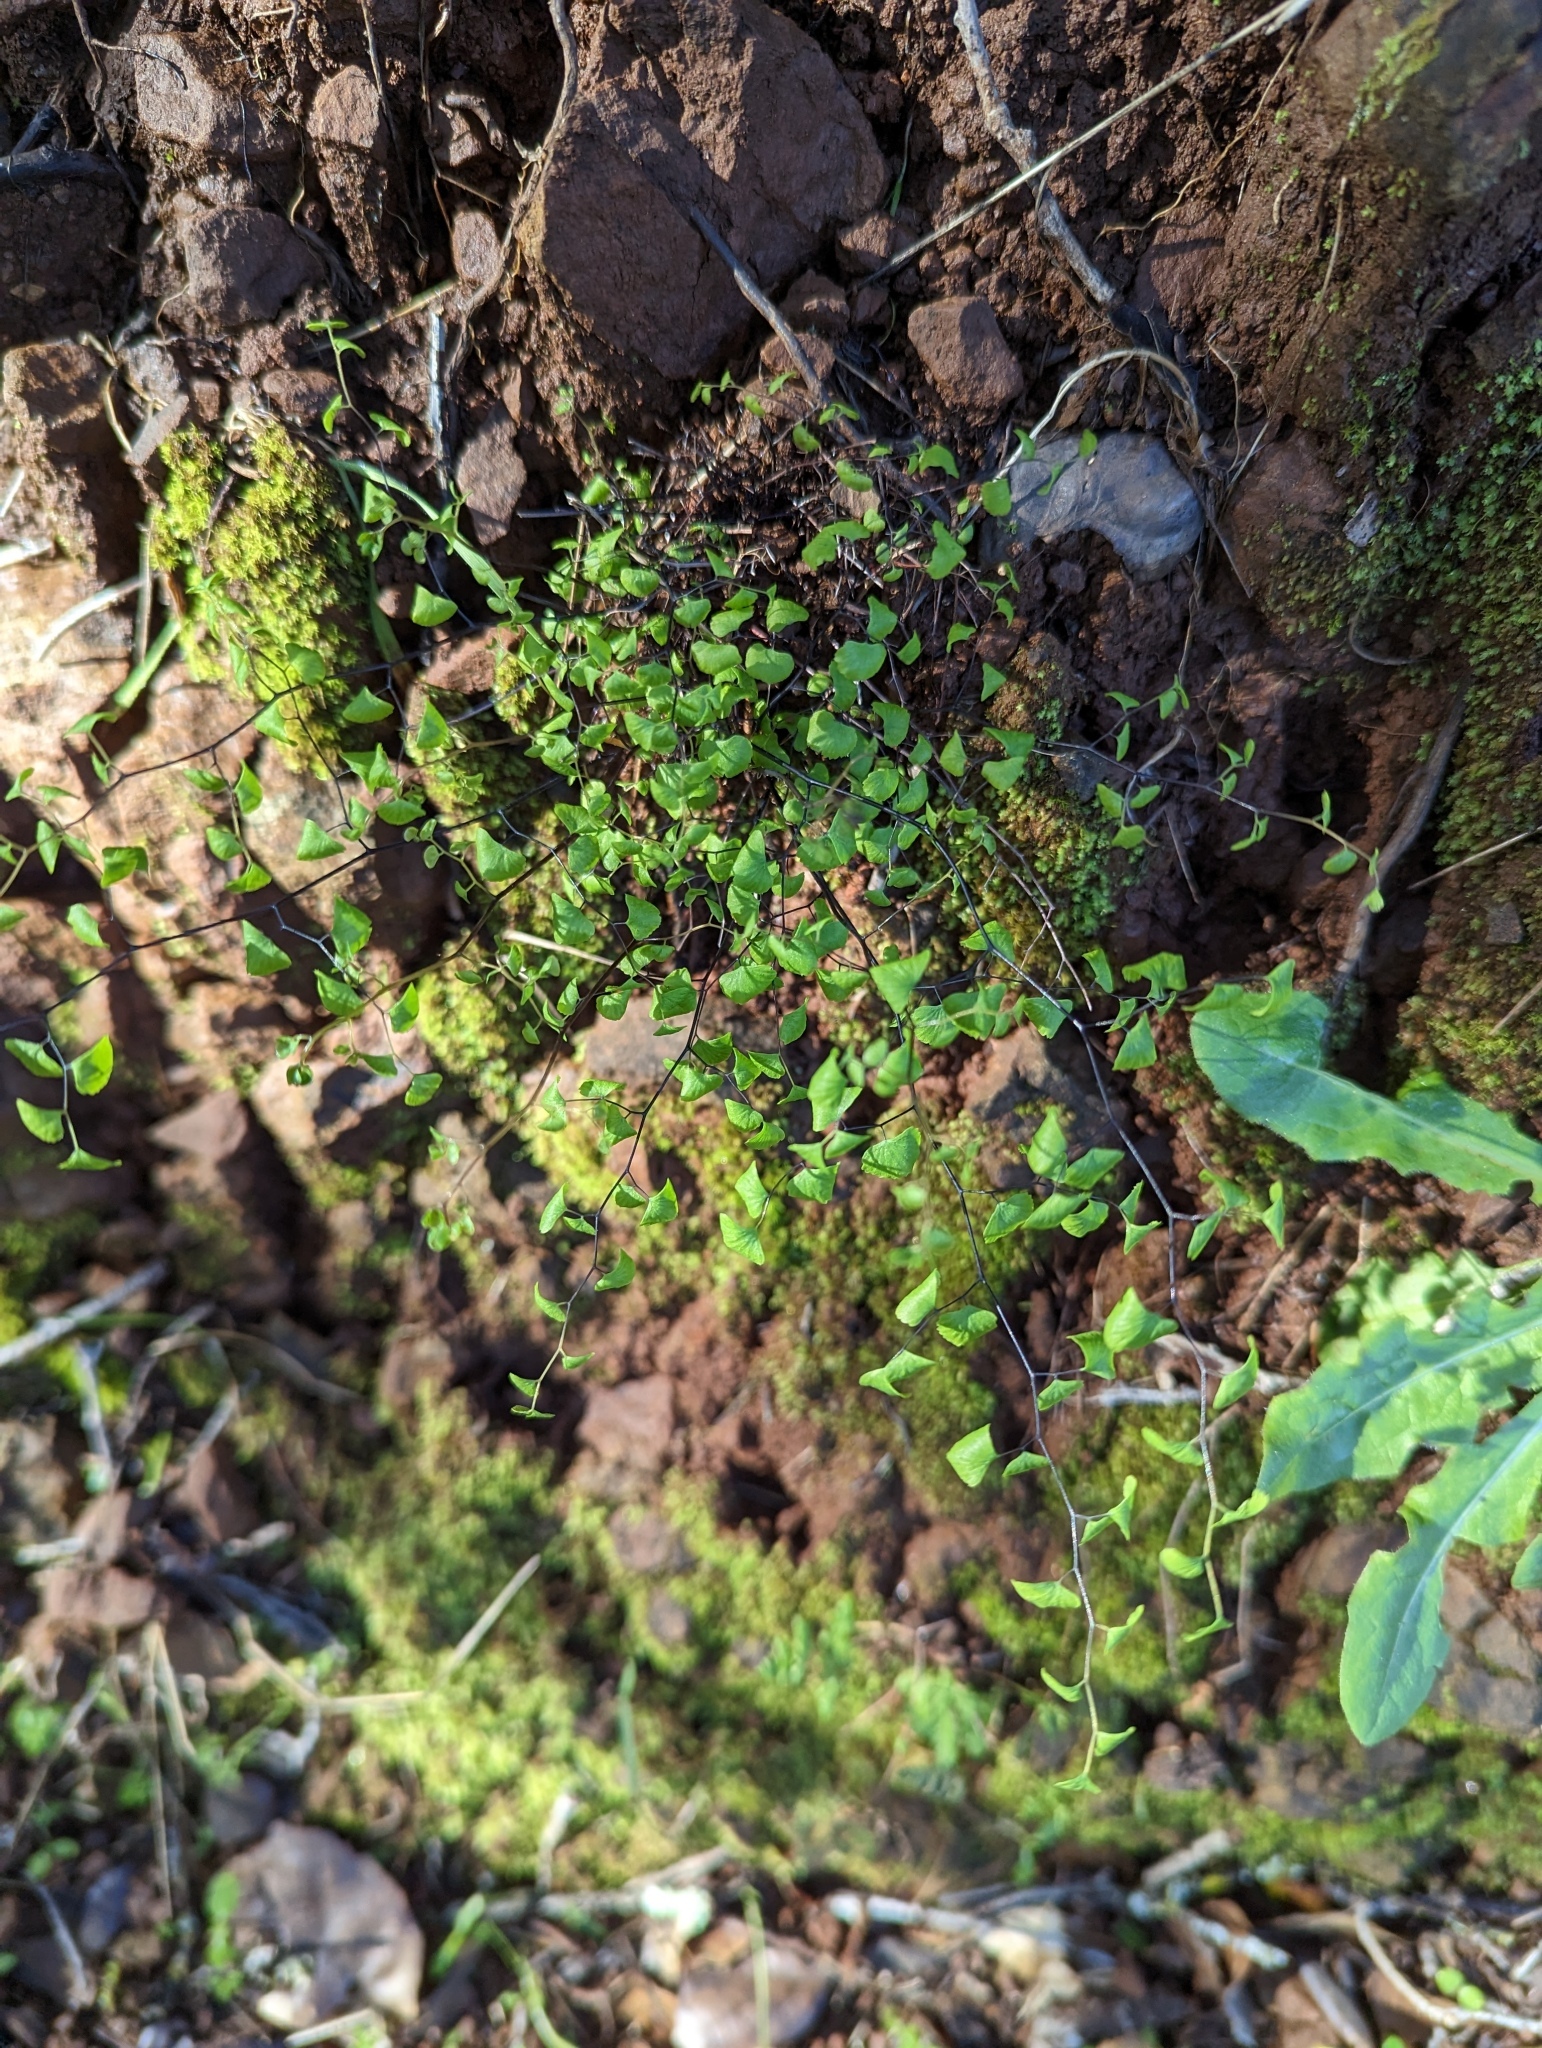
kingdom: Plantae
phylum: Tracheophyta
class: Polypodiopsida
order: Polypodiales
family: Pteridaceae
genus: Adiantum
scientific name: Adiantum jordanii
